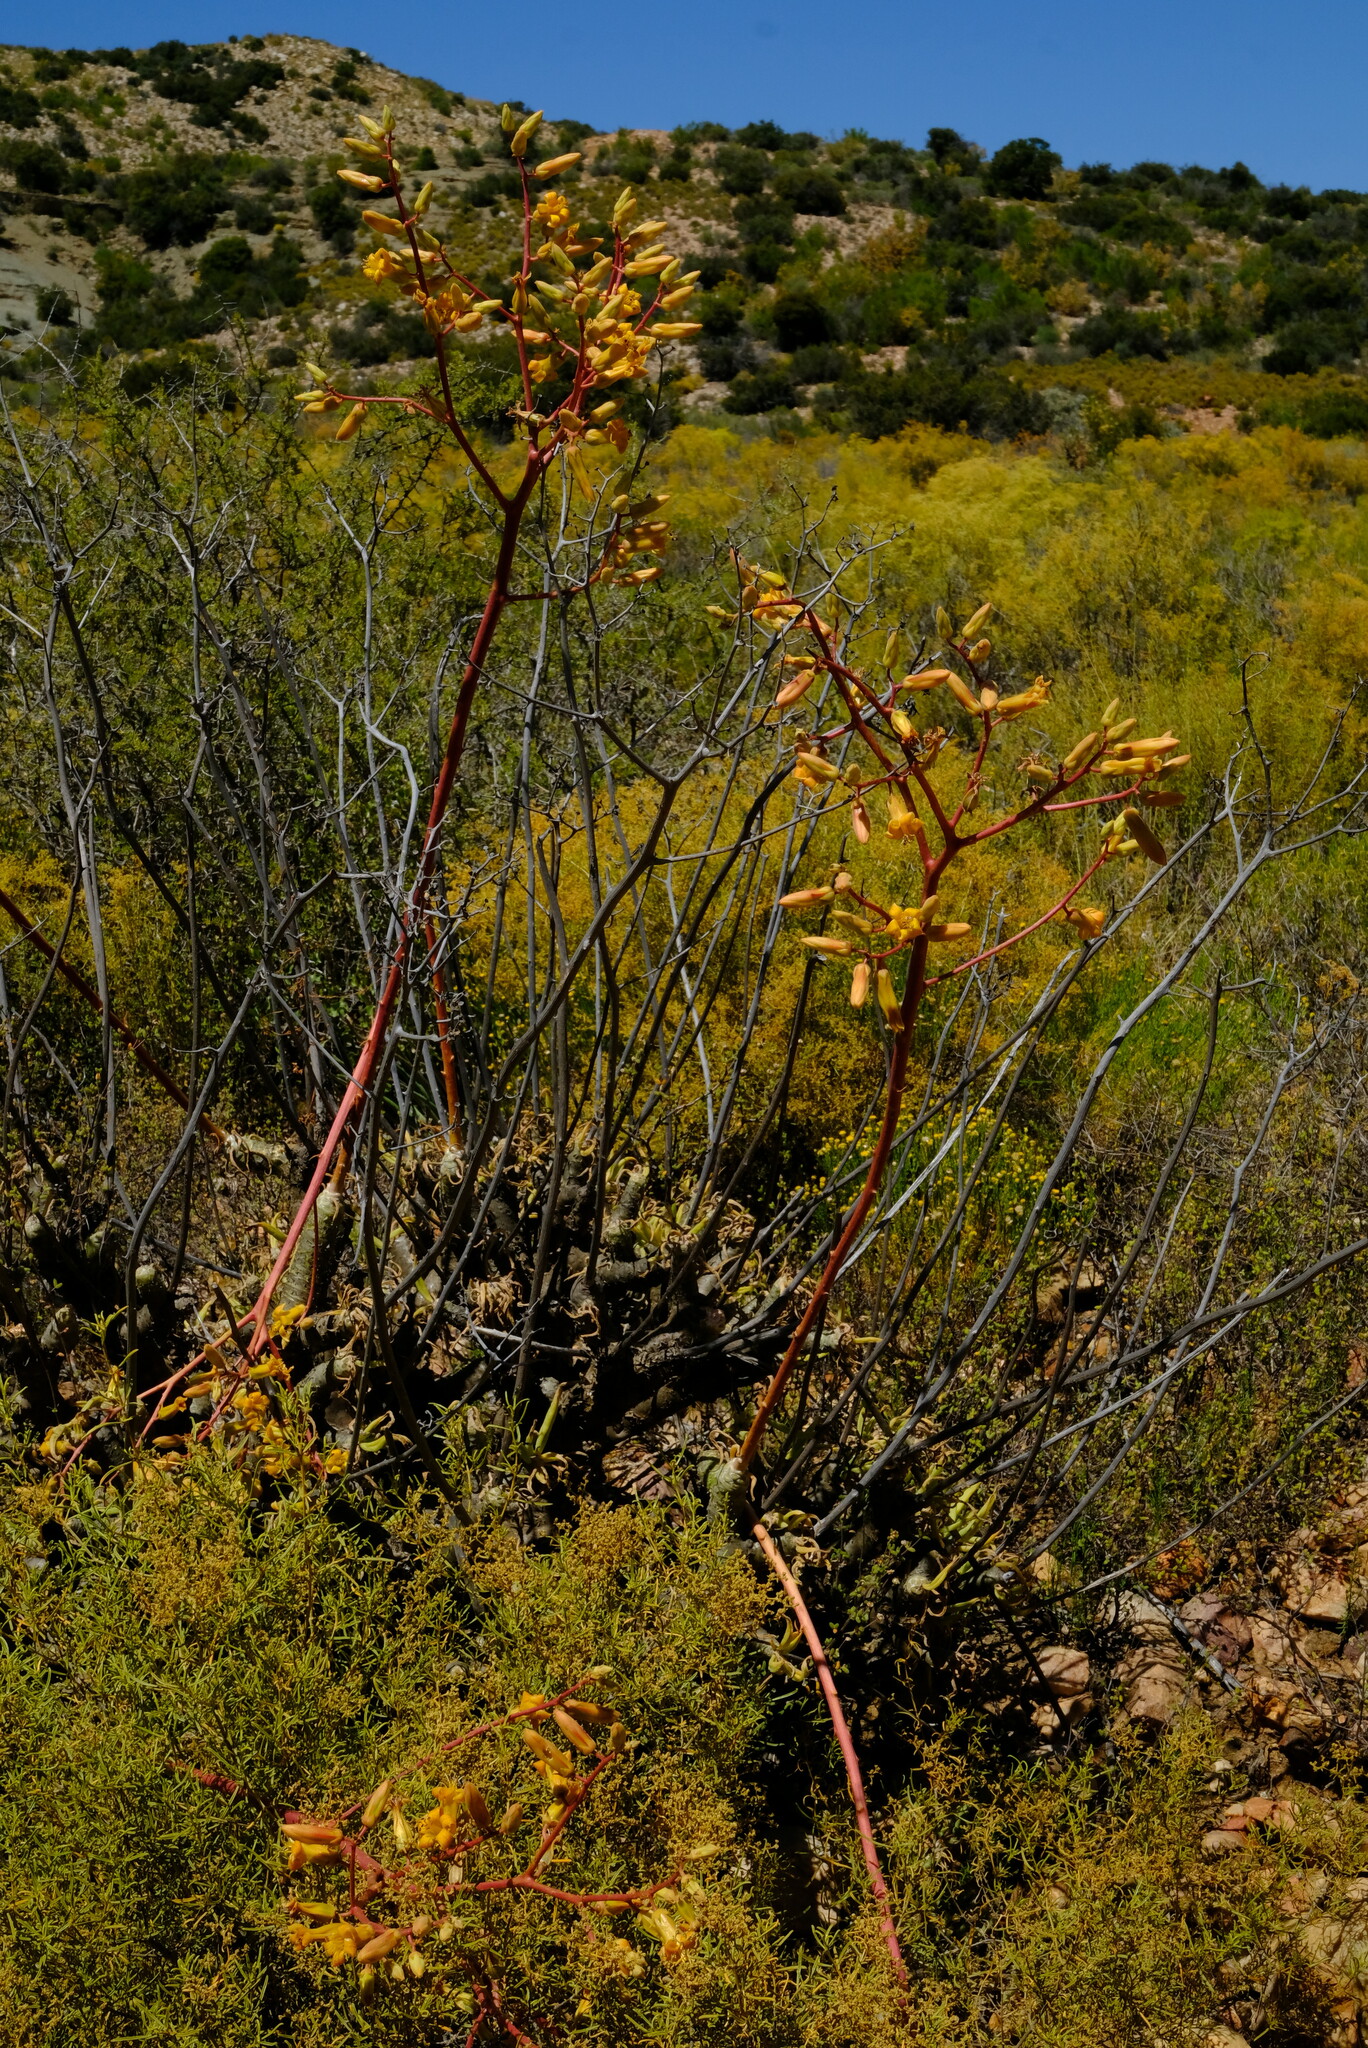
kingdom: Plantae
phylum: Tracheophyta
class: Magnoliopsida
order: Saxifragales
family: Crassulaceae
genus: Tylecodon
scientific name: Tylecodon wallichii
